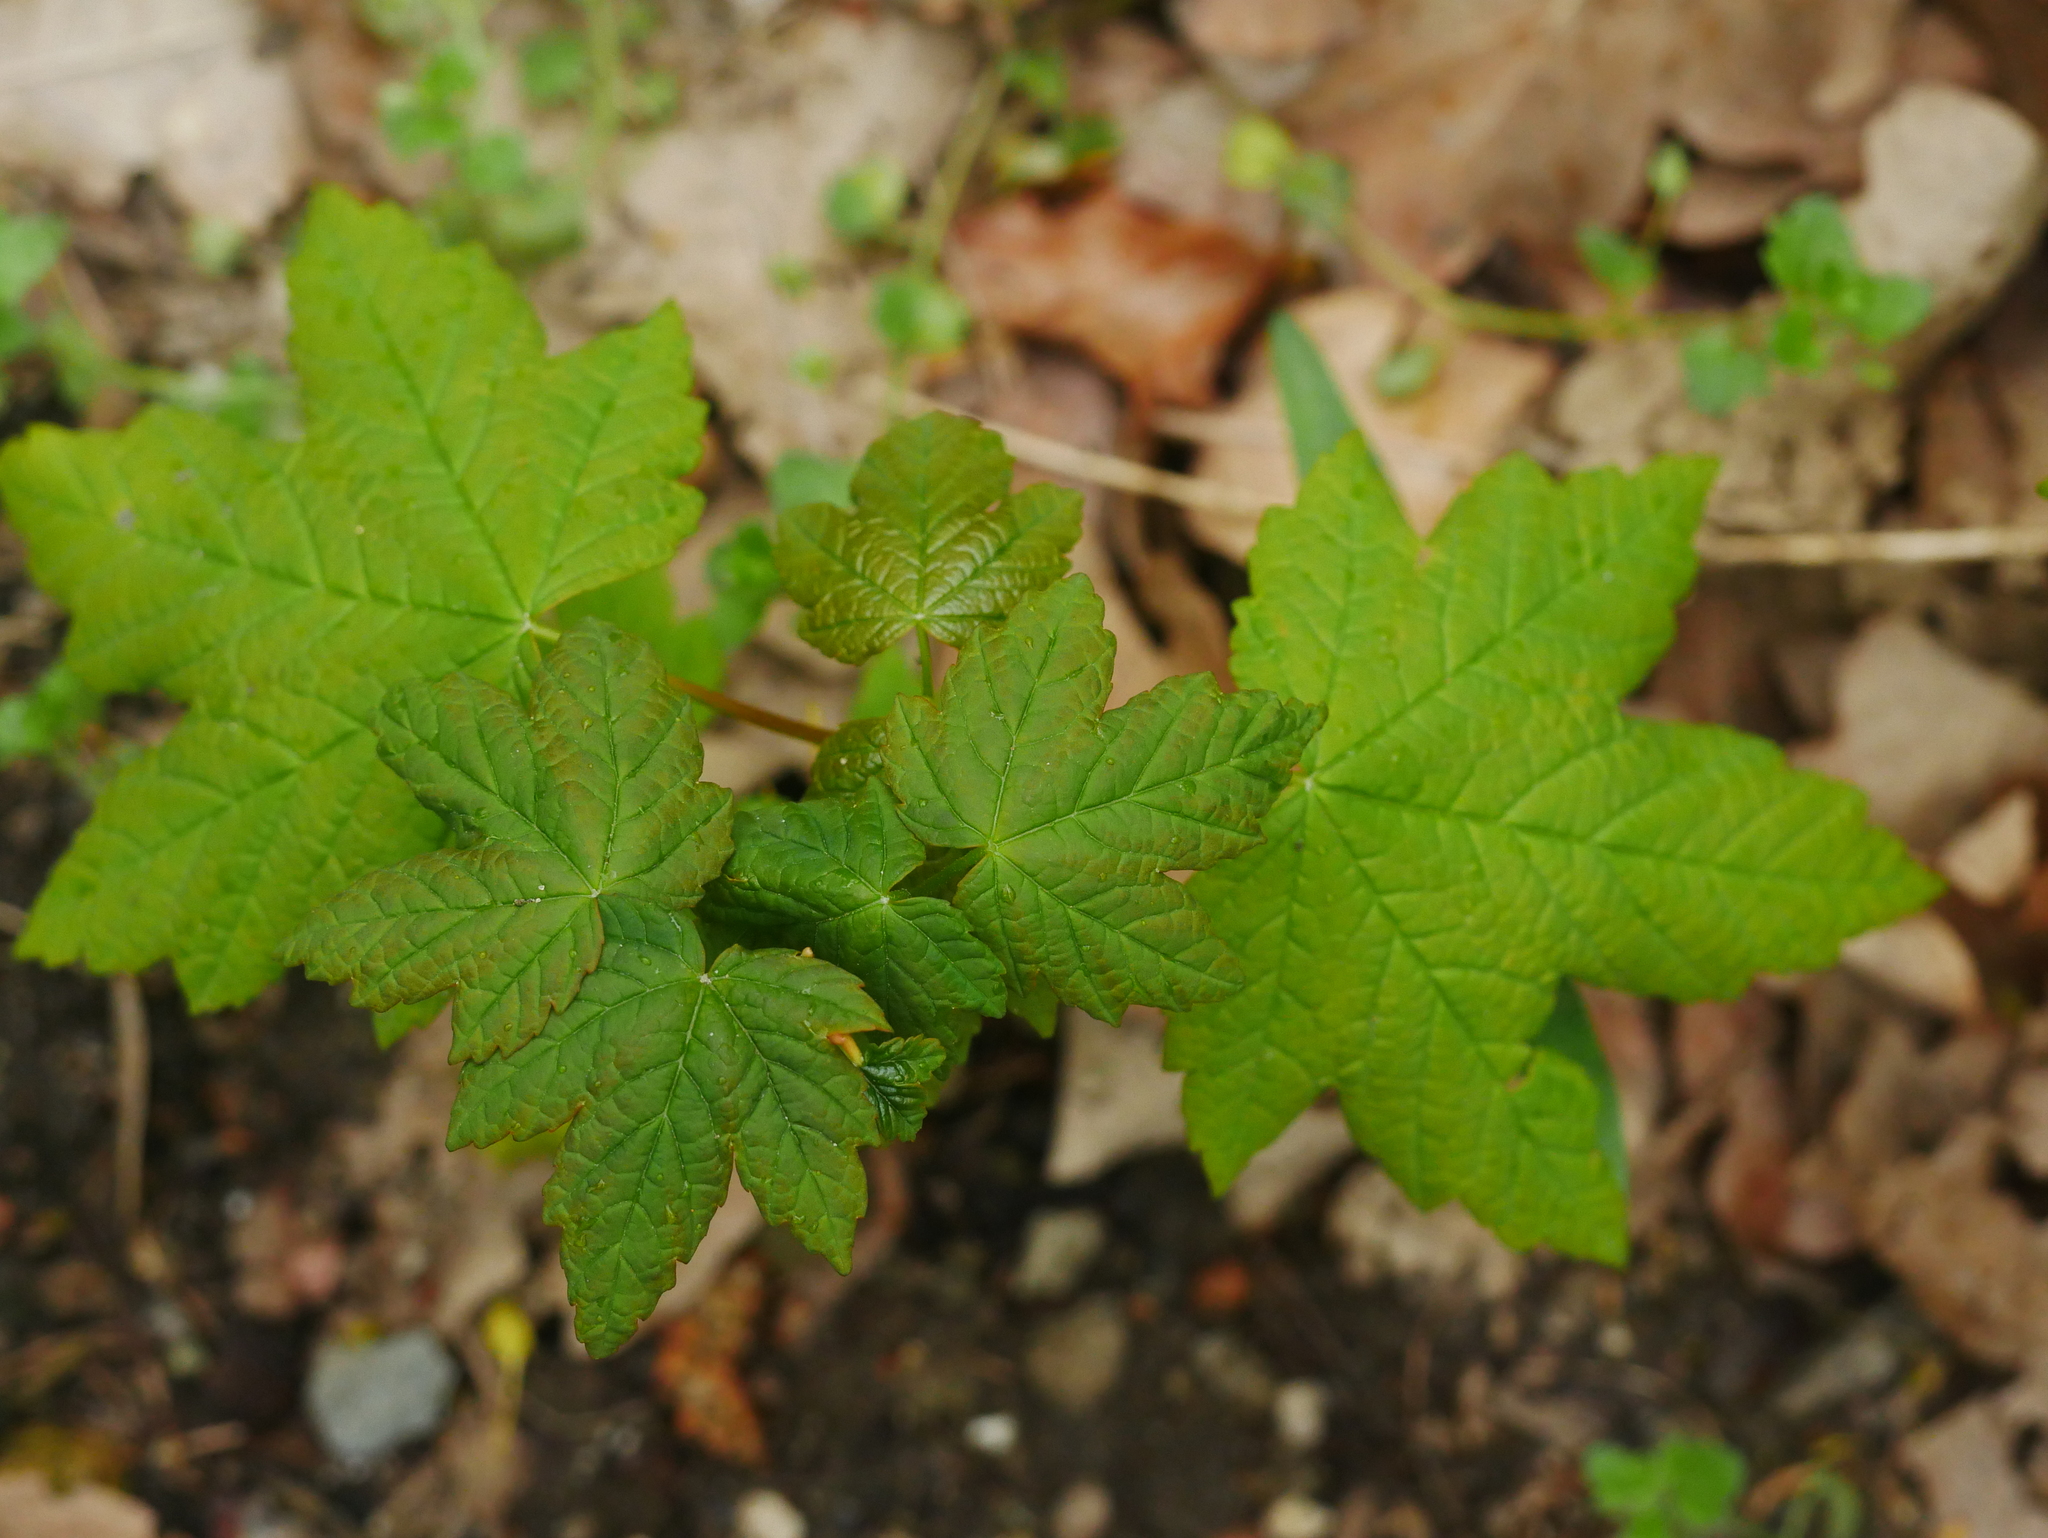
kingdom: Plantae
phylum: Tracheophyta
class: Magnoliopsida
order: Sapindales
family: Sapindaceae
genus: Acer
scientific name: Acer pseudoplatanus
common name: Sycamore
